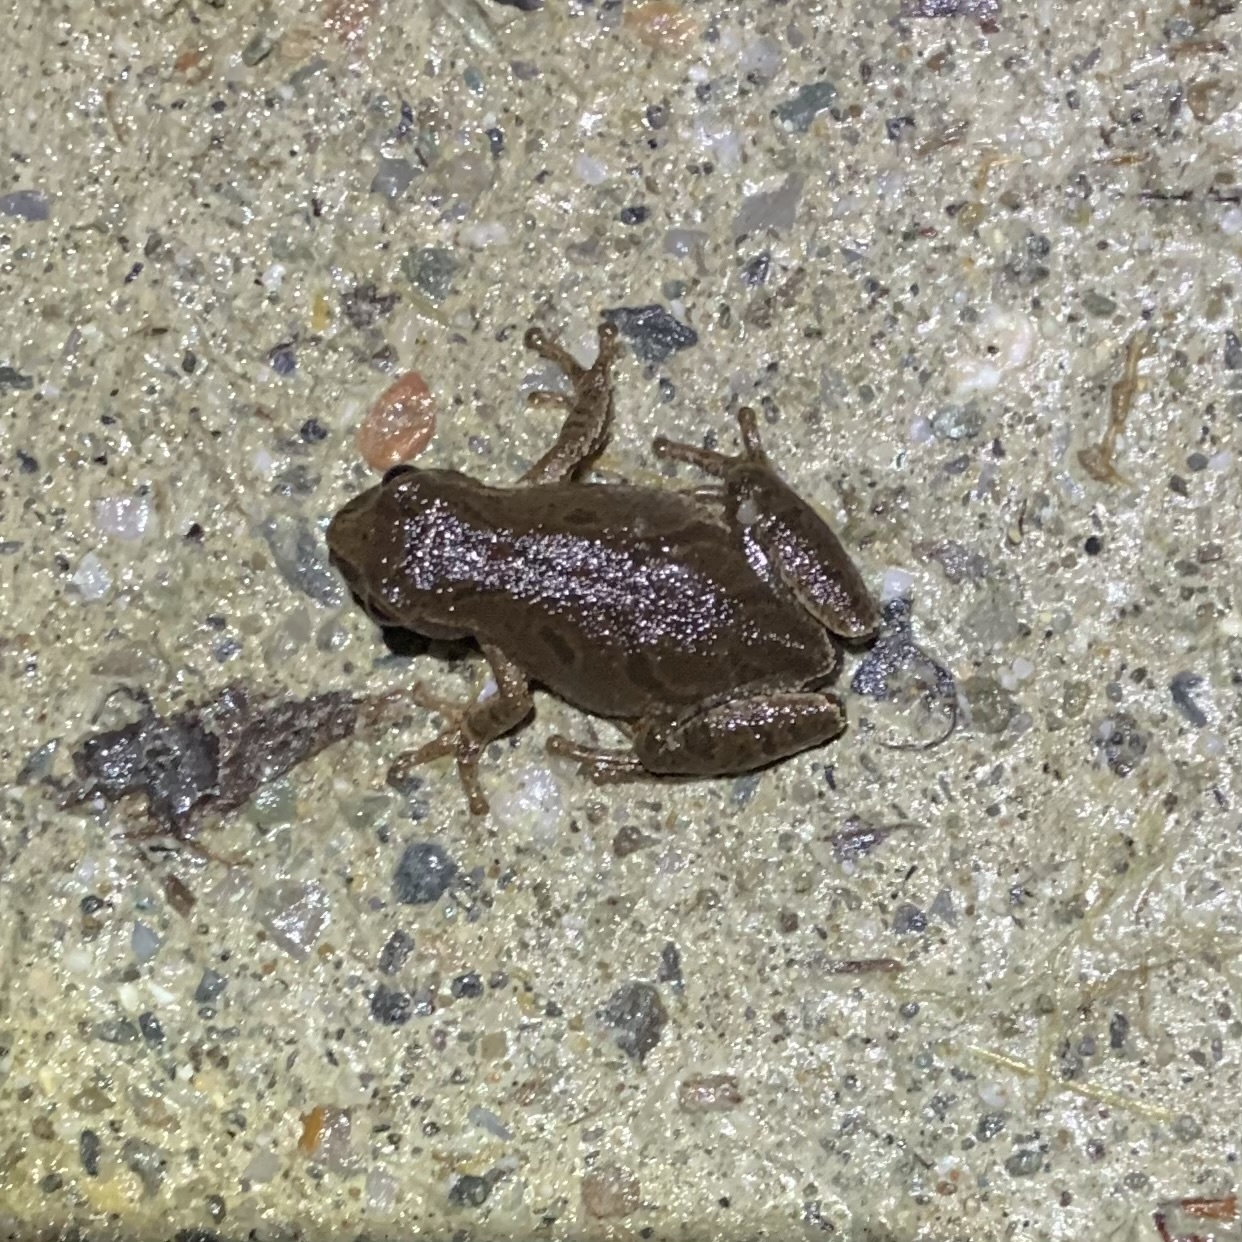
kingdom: Animalia
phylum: Chordata
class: Amphibia
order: Anura
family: Hylidae
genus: Pseudacris
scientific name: Pseudacris crucifer
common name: Spring peeper
